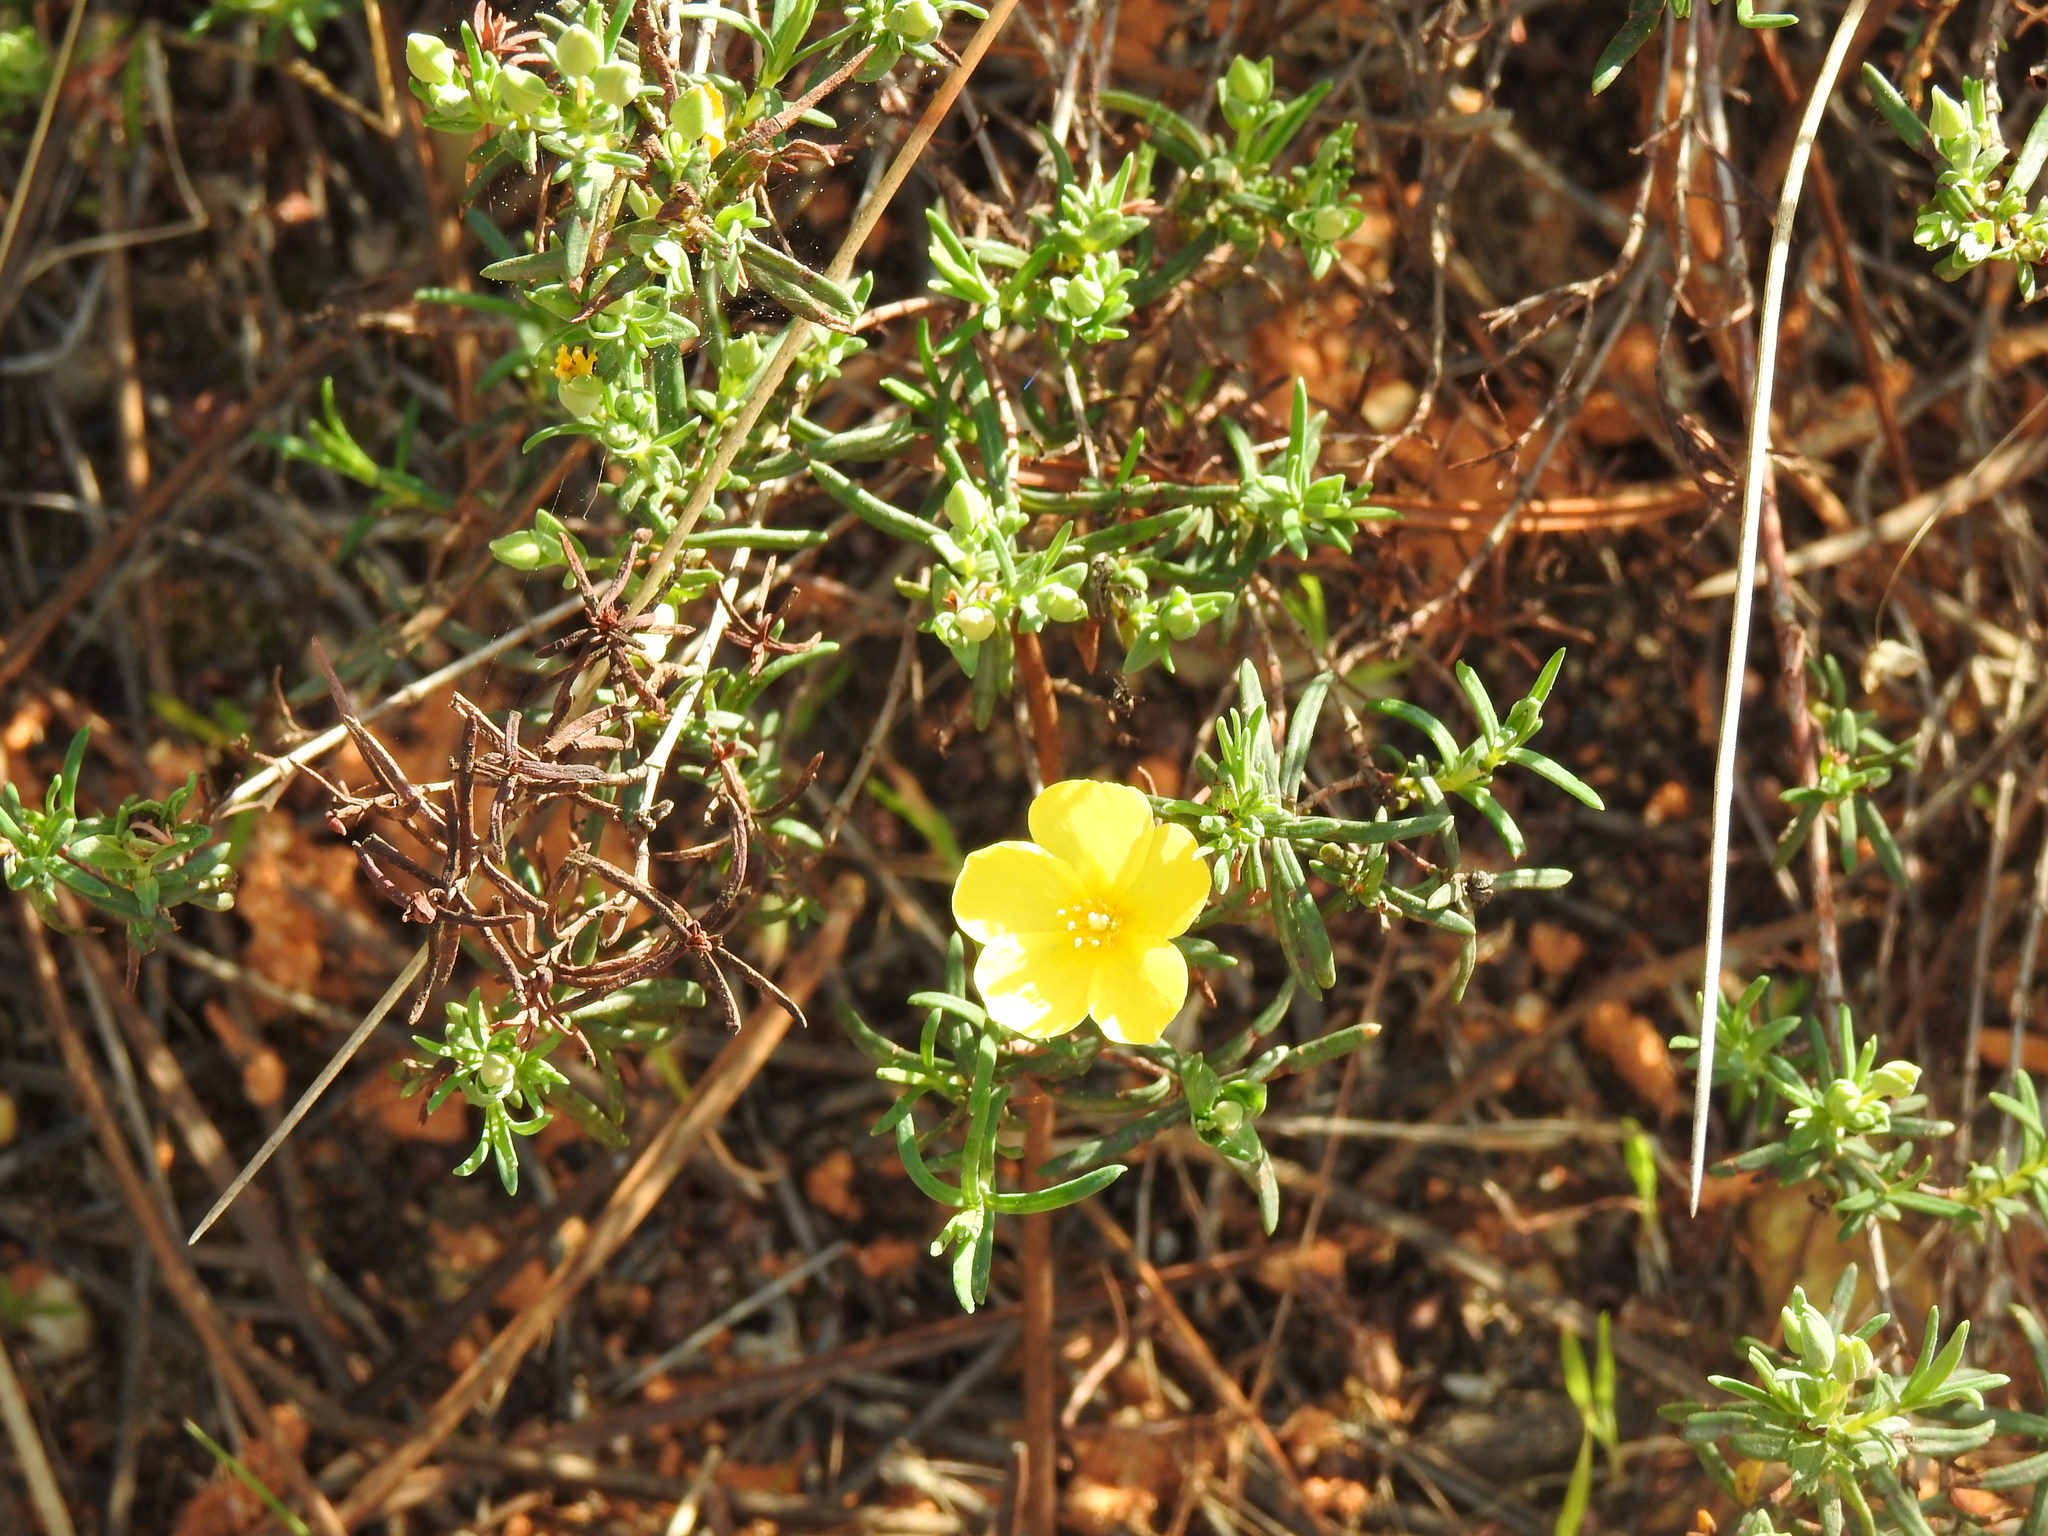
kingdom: Plantae
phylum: Tracheophyta
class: Magnoliopsida
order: Malvales
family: Cistaceae
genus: Halimium
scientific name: Halimium calycinum
